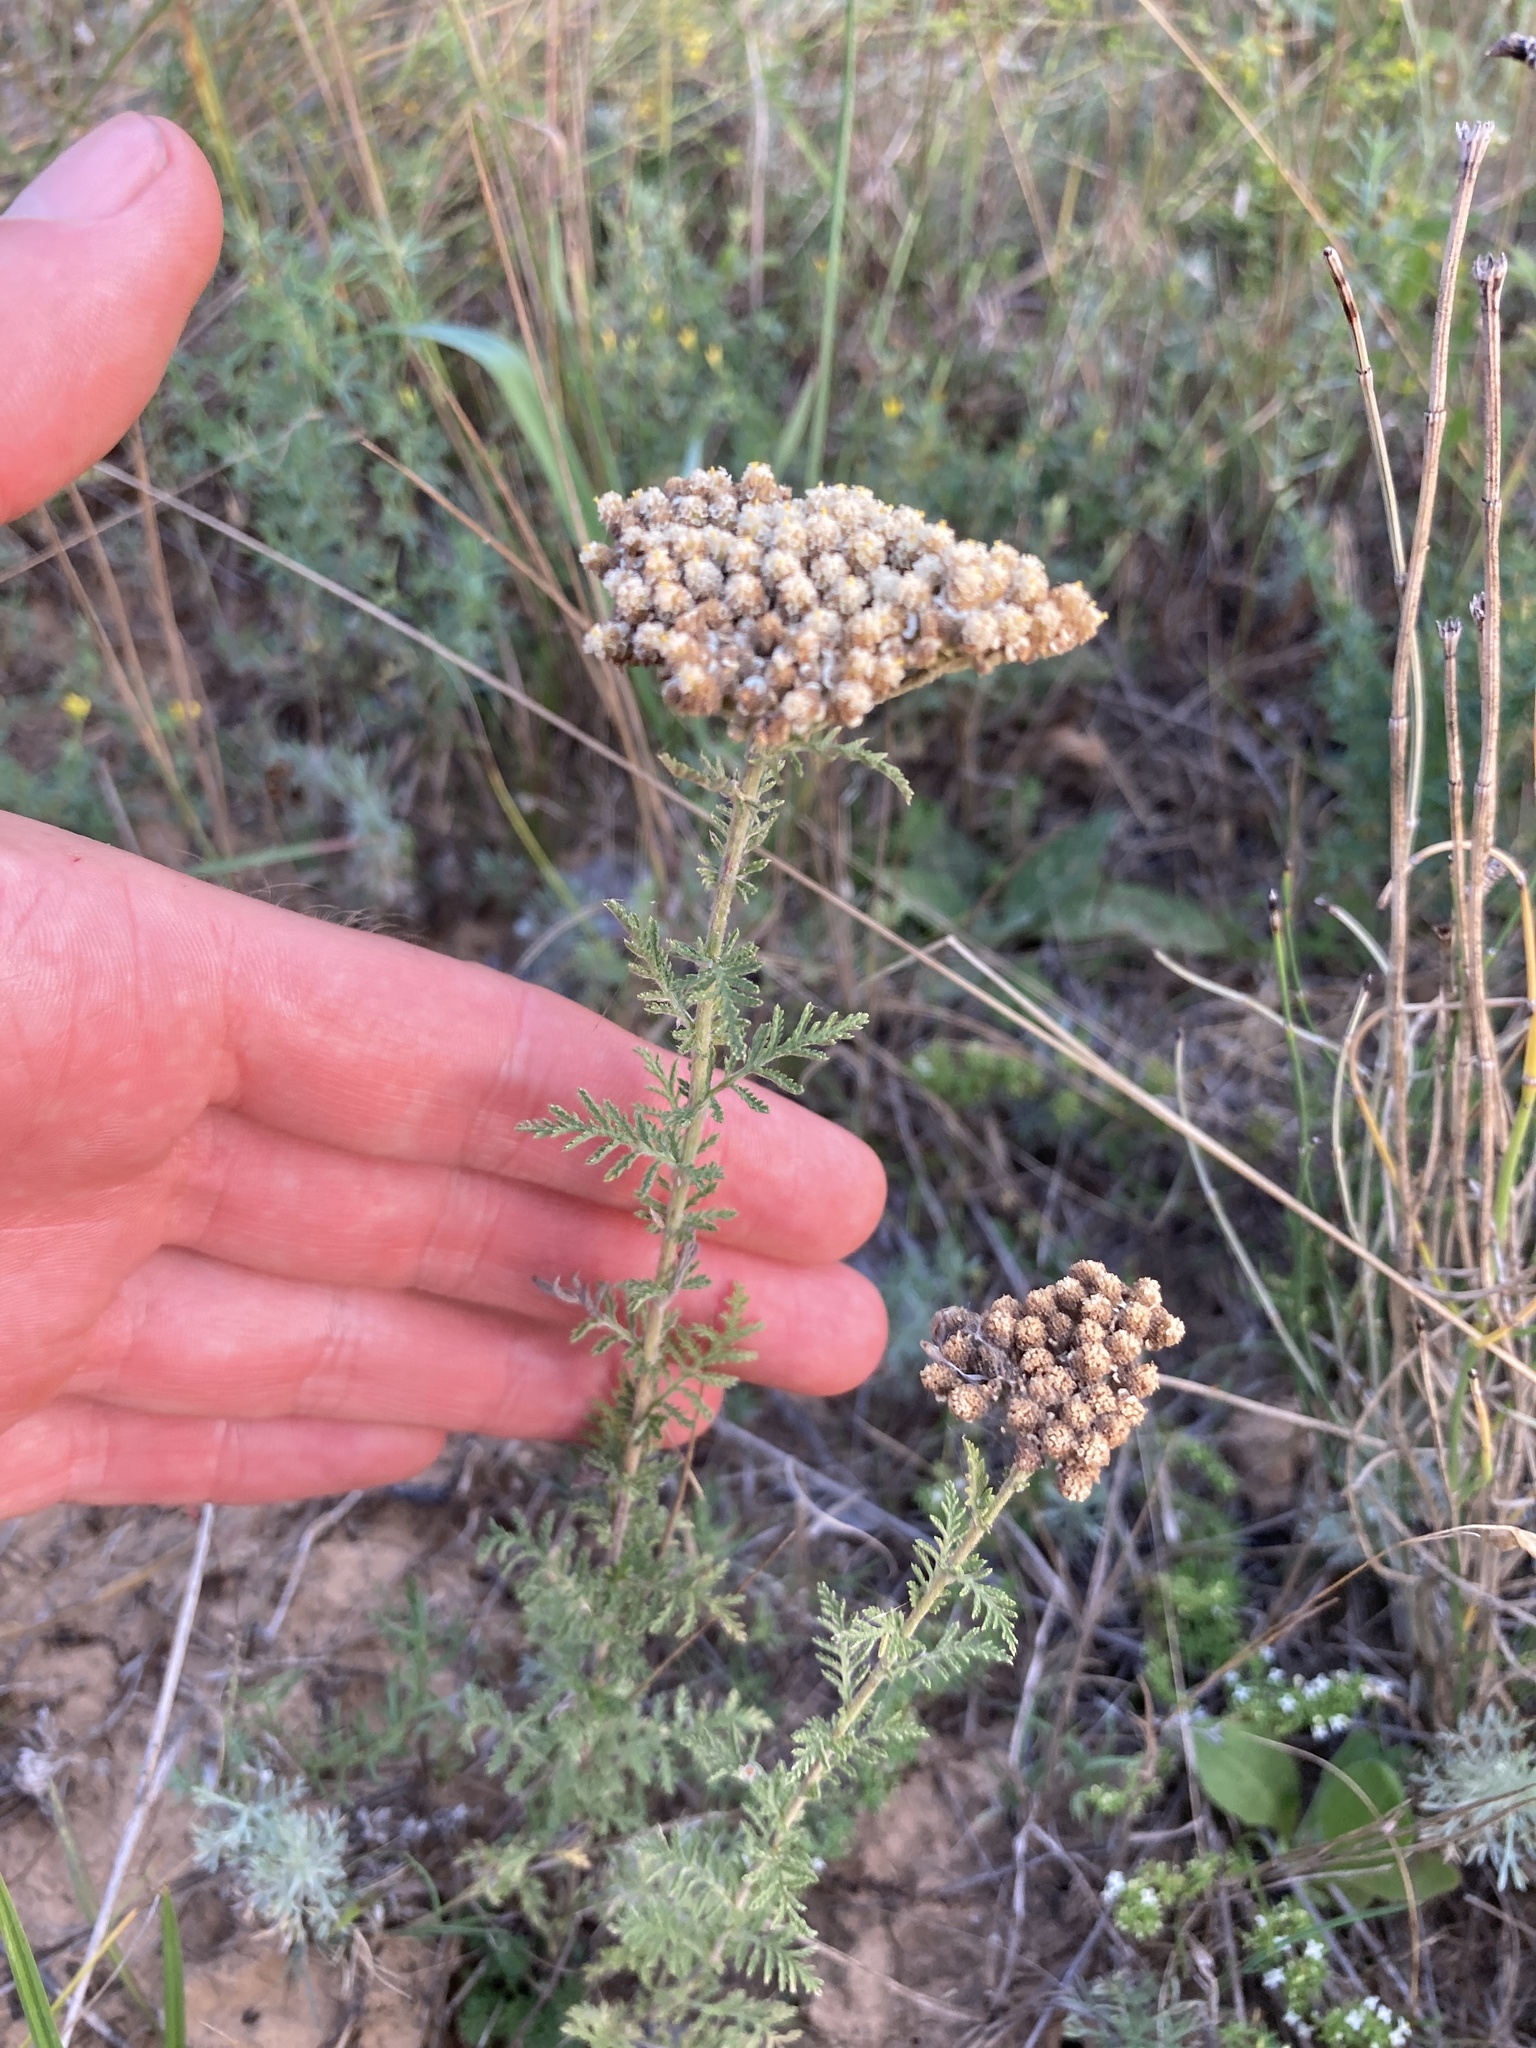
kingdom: Plantae
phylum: Tracheophyta
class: Magnoliopsida
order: Asterales
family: Asteraceae
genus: Achillea
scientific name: Achillea nobilis
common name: Noble yarrow
